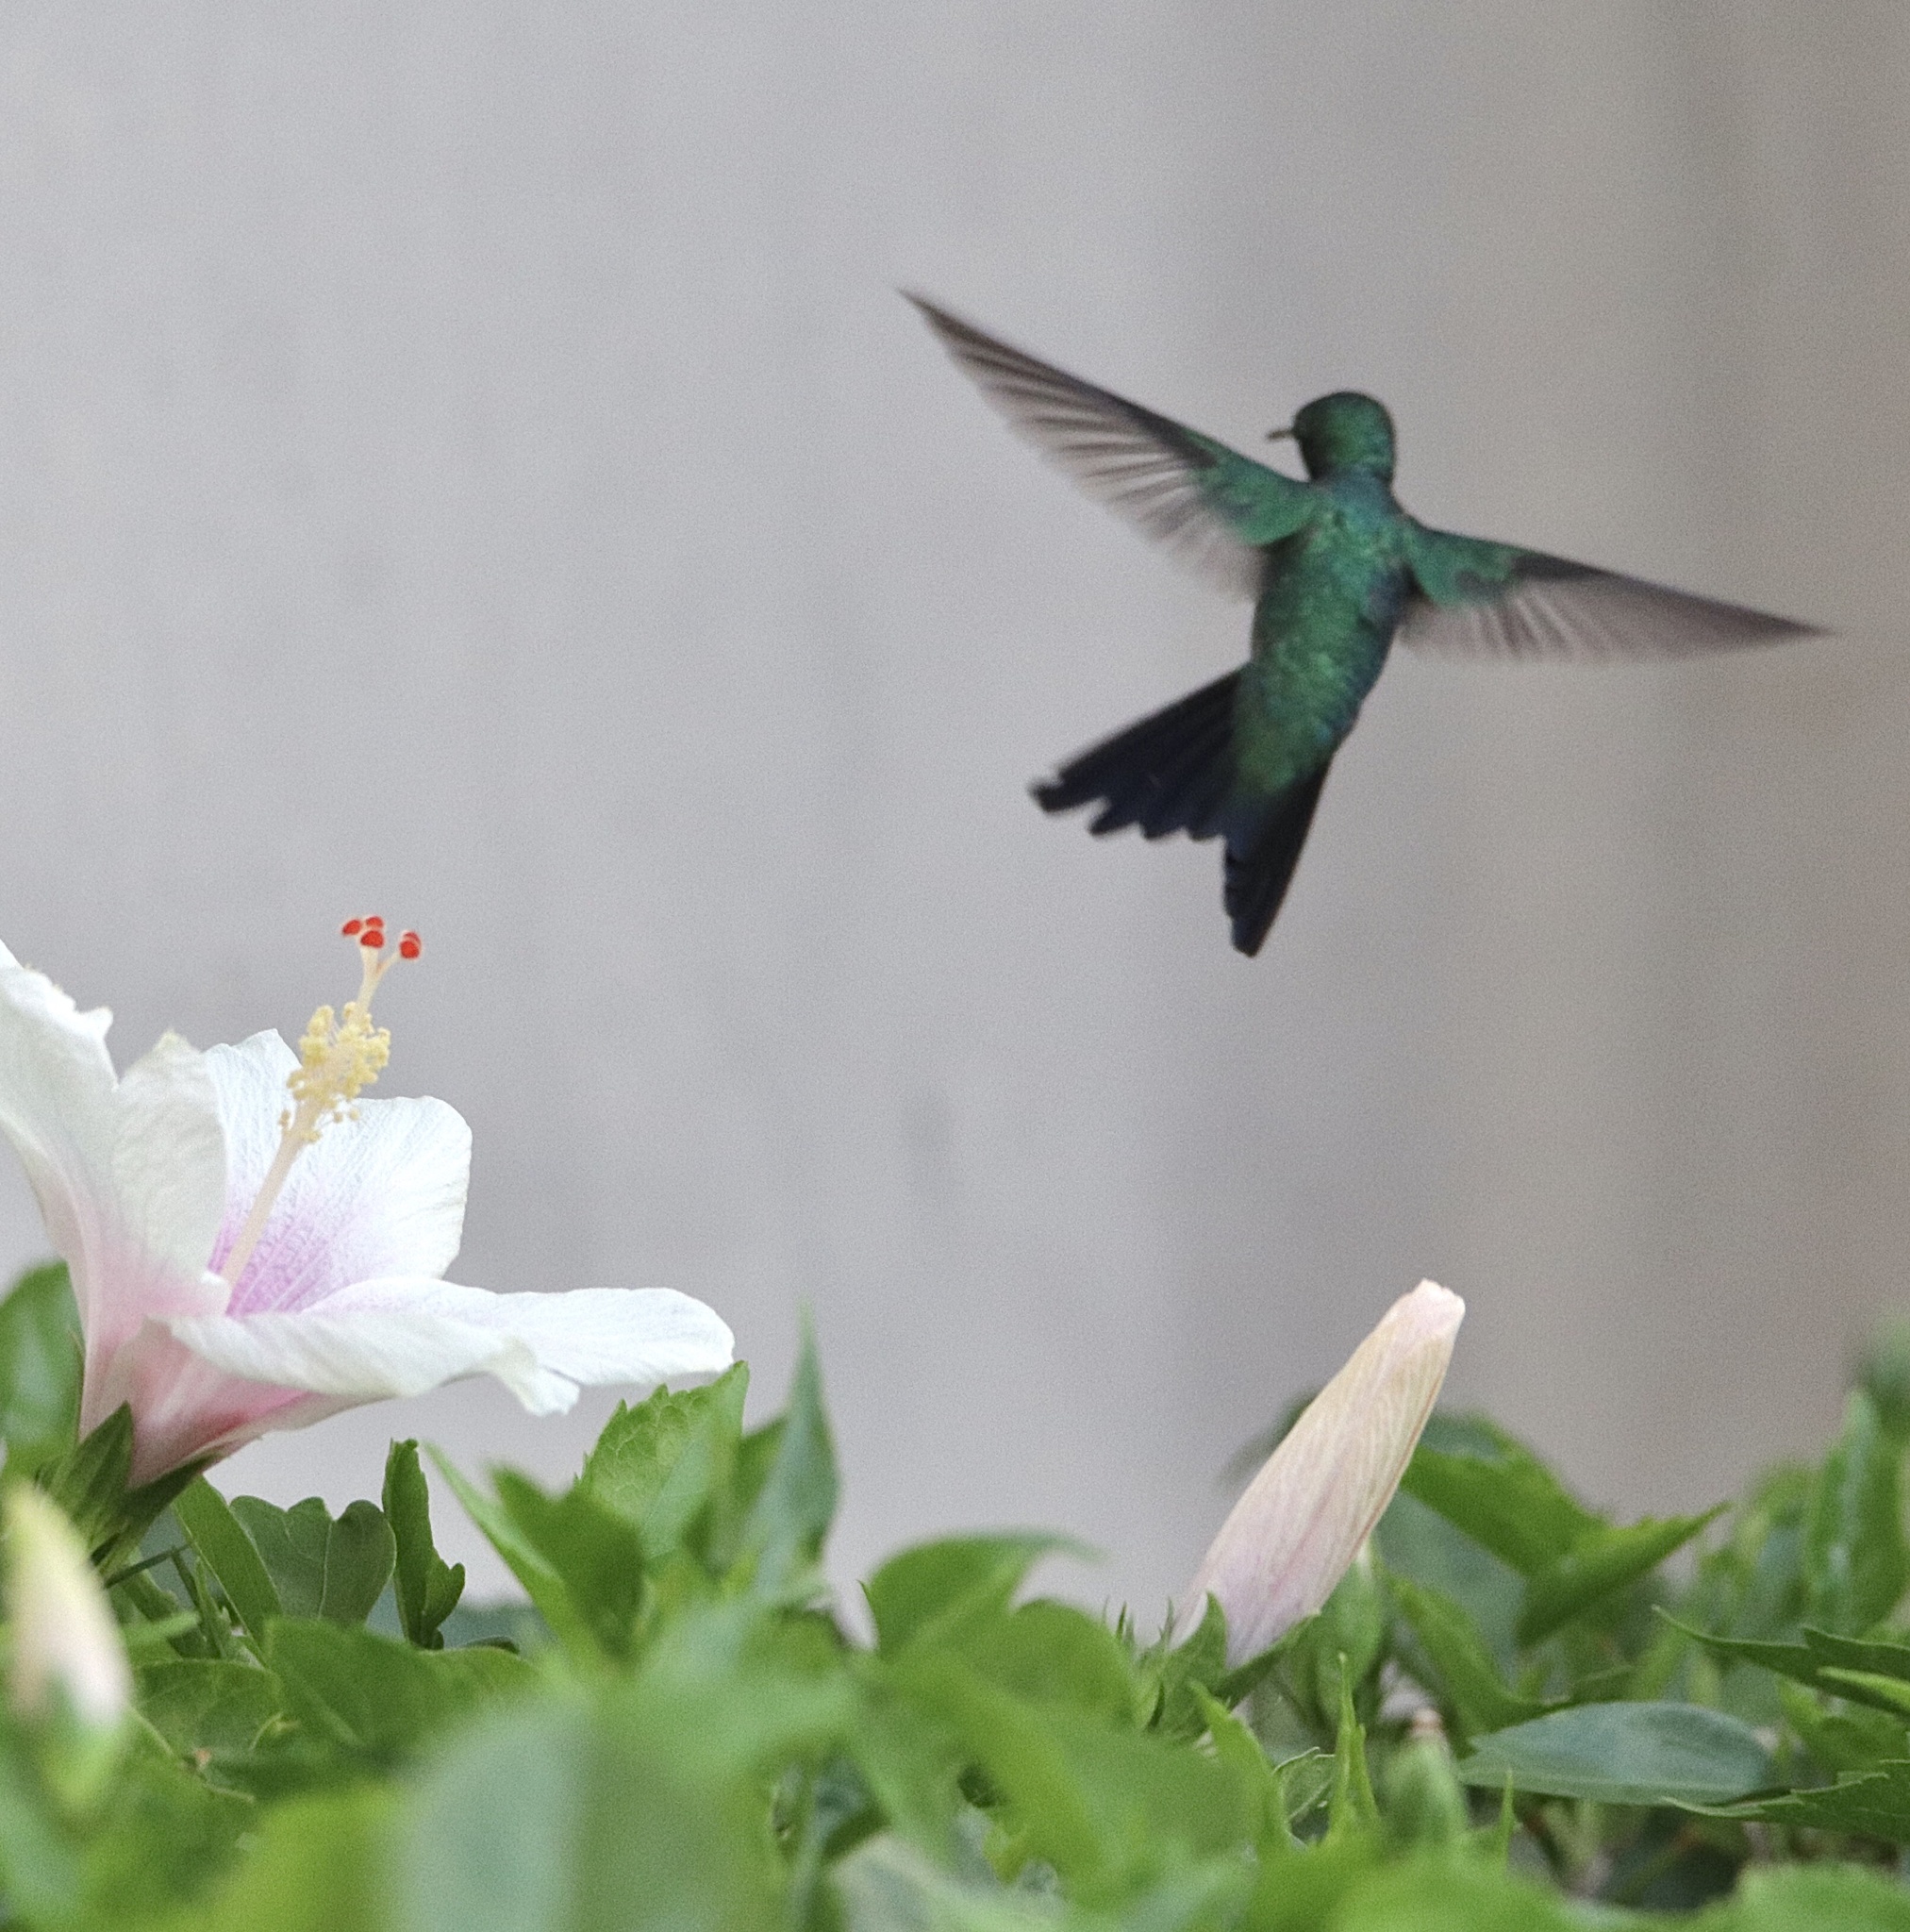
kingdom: Animalia
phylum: Chordata
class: Aves
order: Apodiformes
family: Trochilidae
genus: Chlorostilbon
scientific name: Chlorostilbon assimilis
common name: Garden emerald
